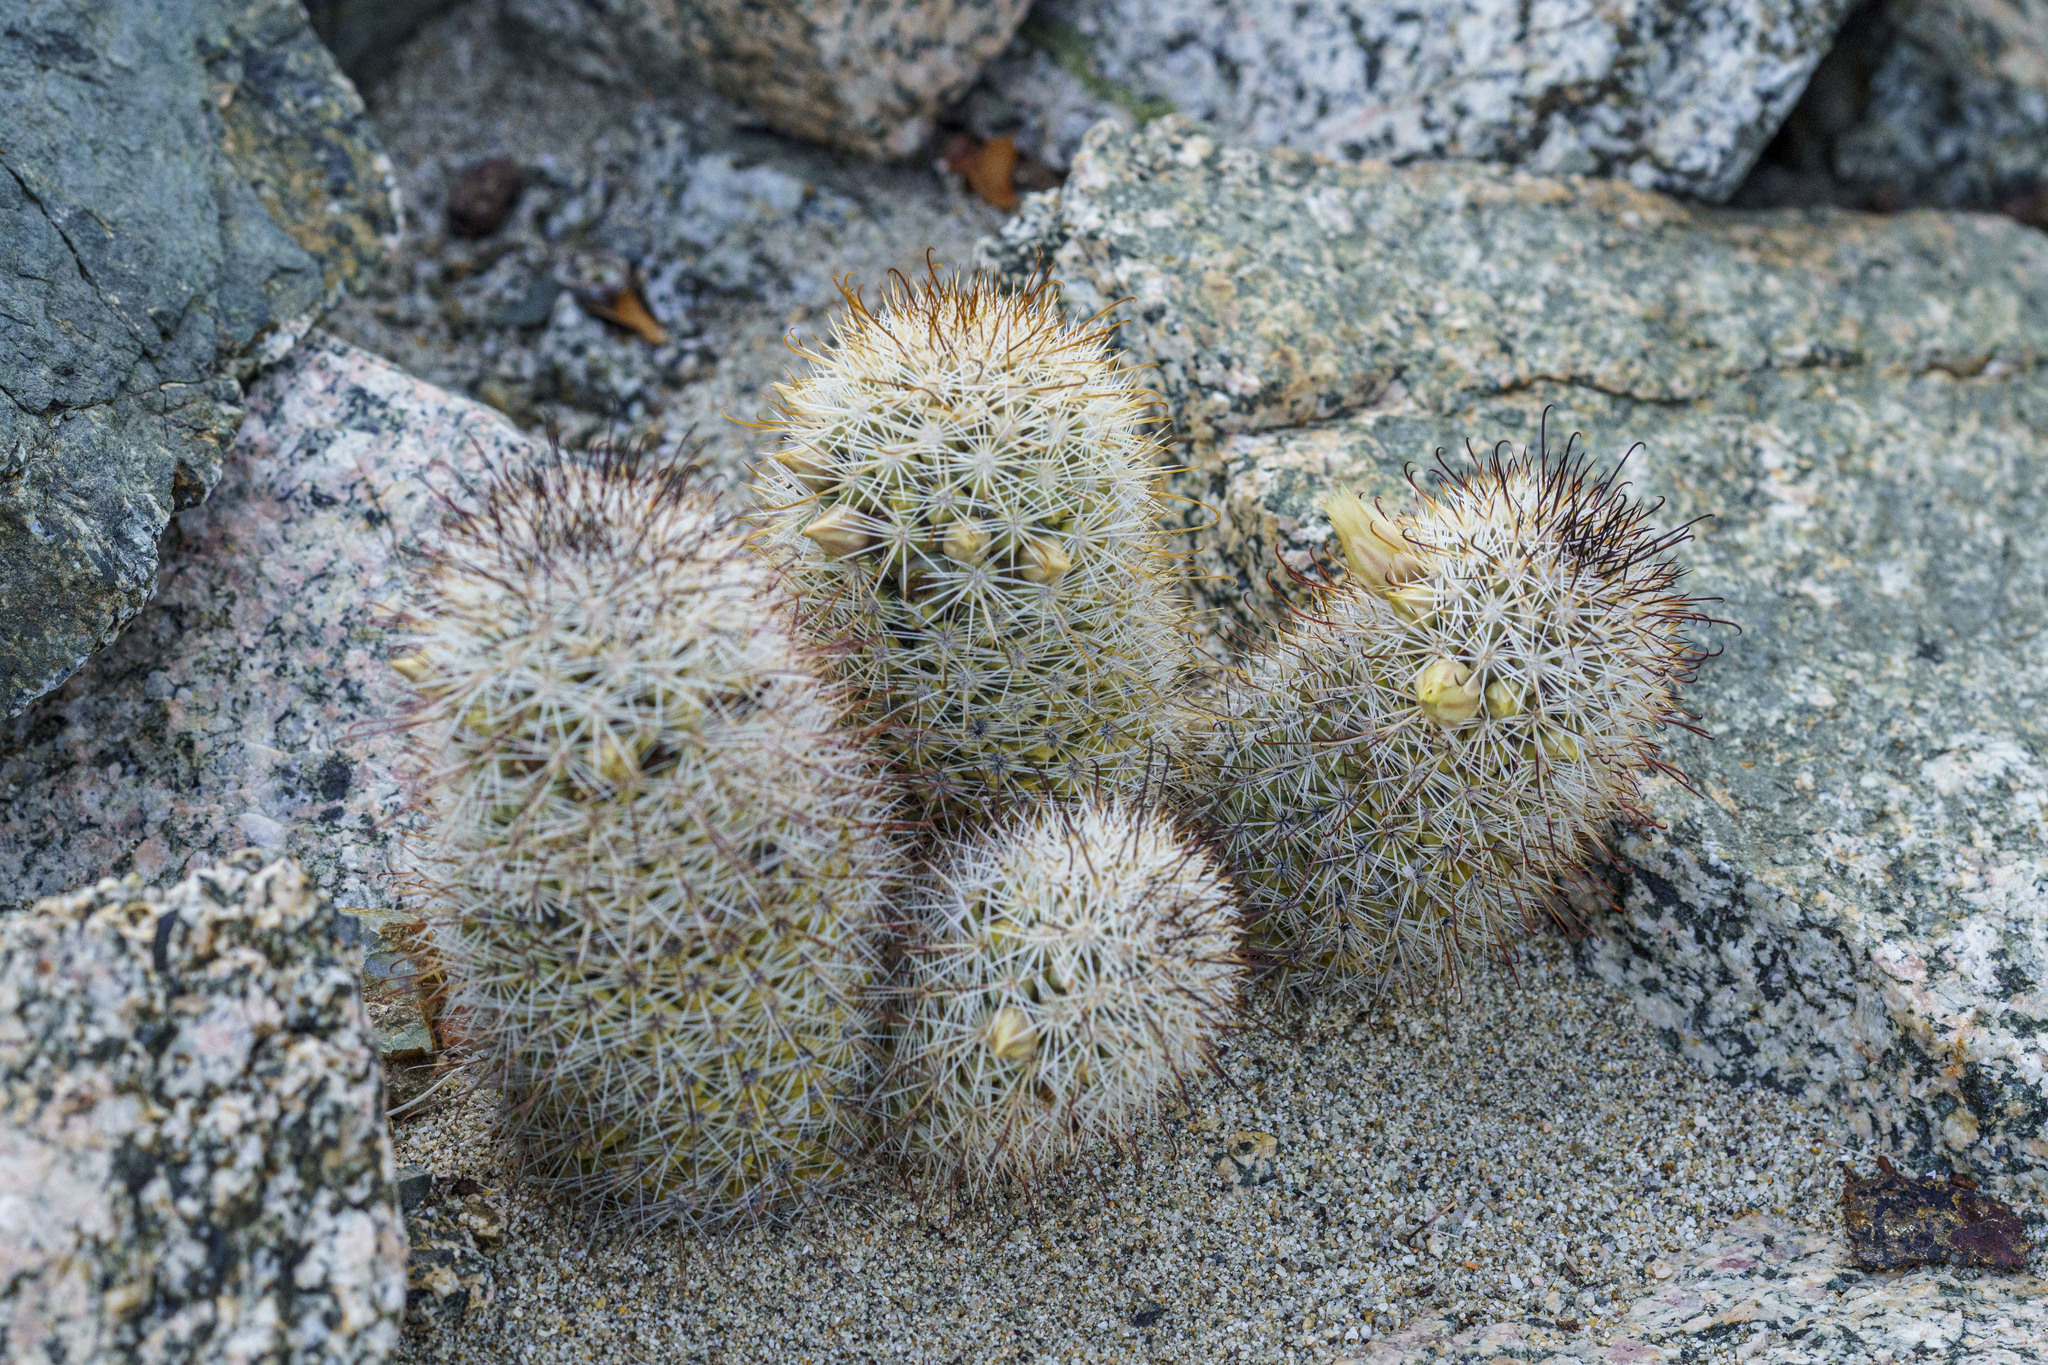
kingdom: Plantae
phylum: Tracheophyta
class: Magnoliopsida
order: Caryophyllales
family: Cactaceae
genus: Cochemiea
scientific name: Cochemiea armillata
